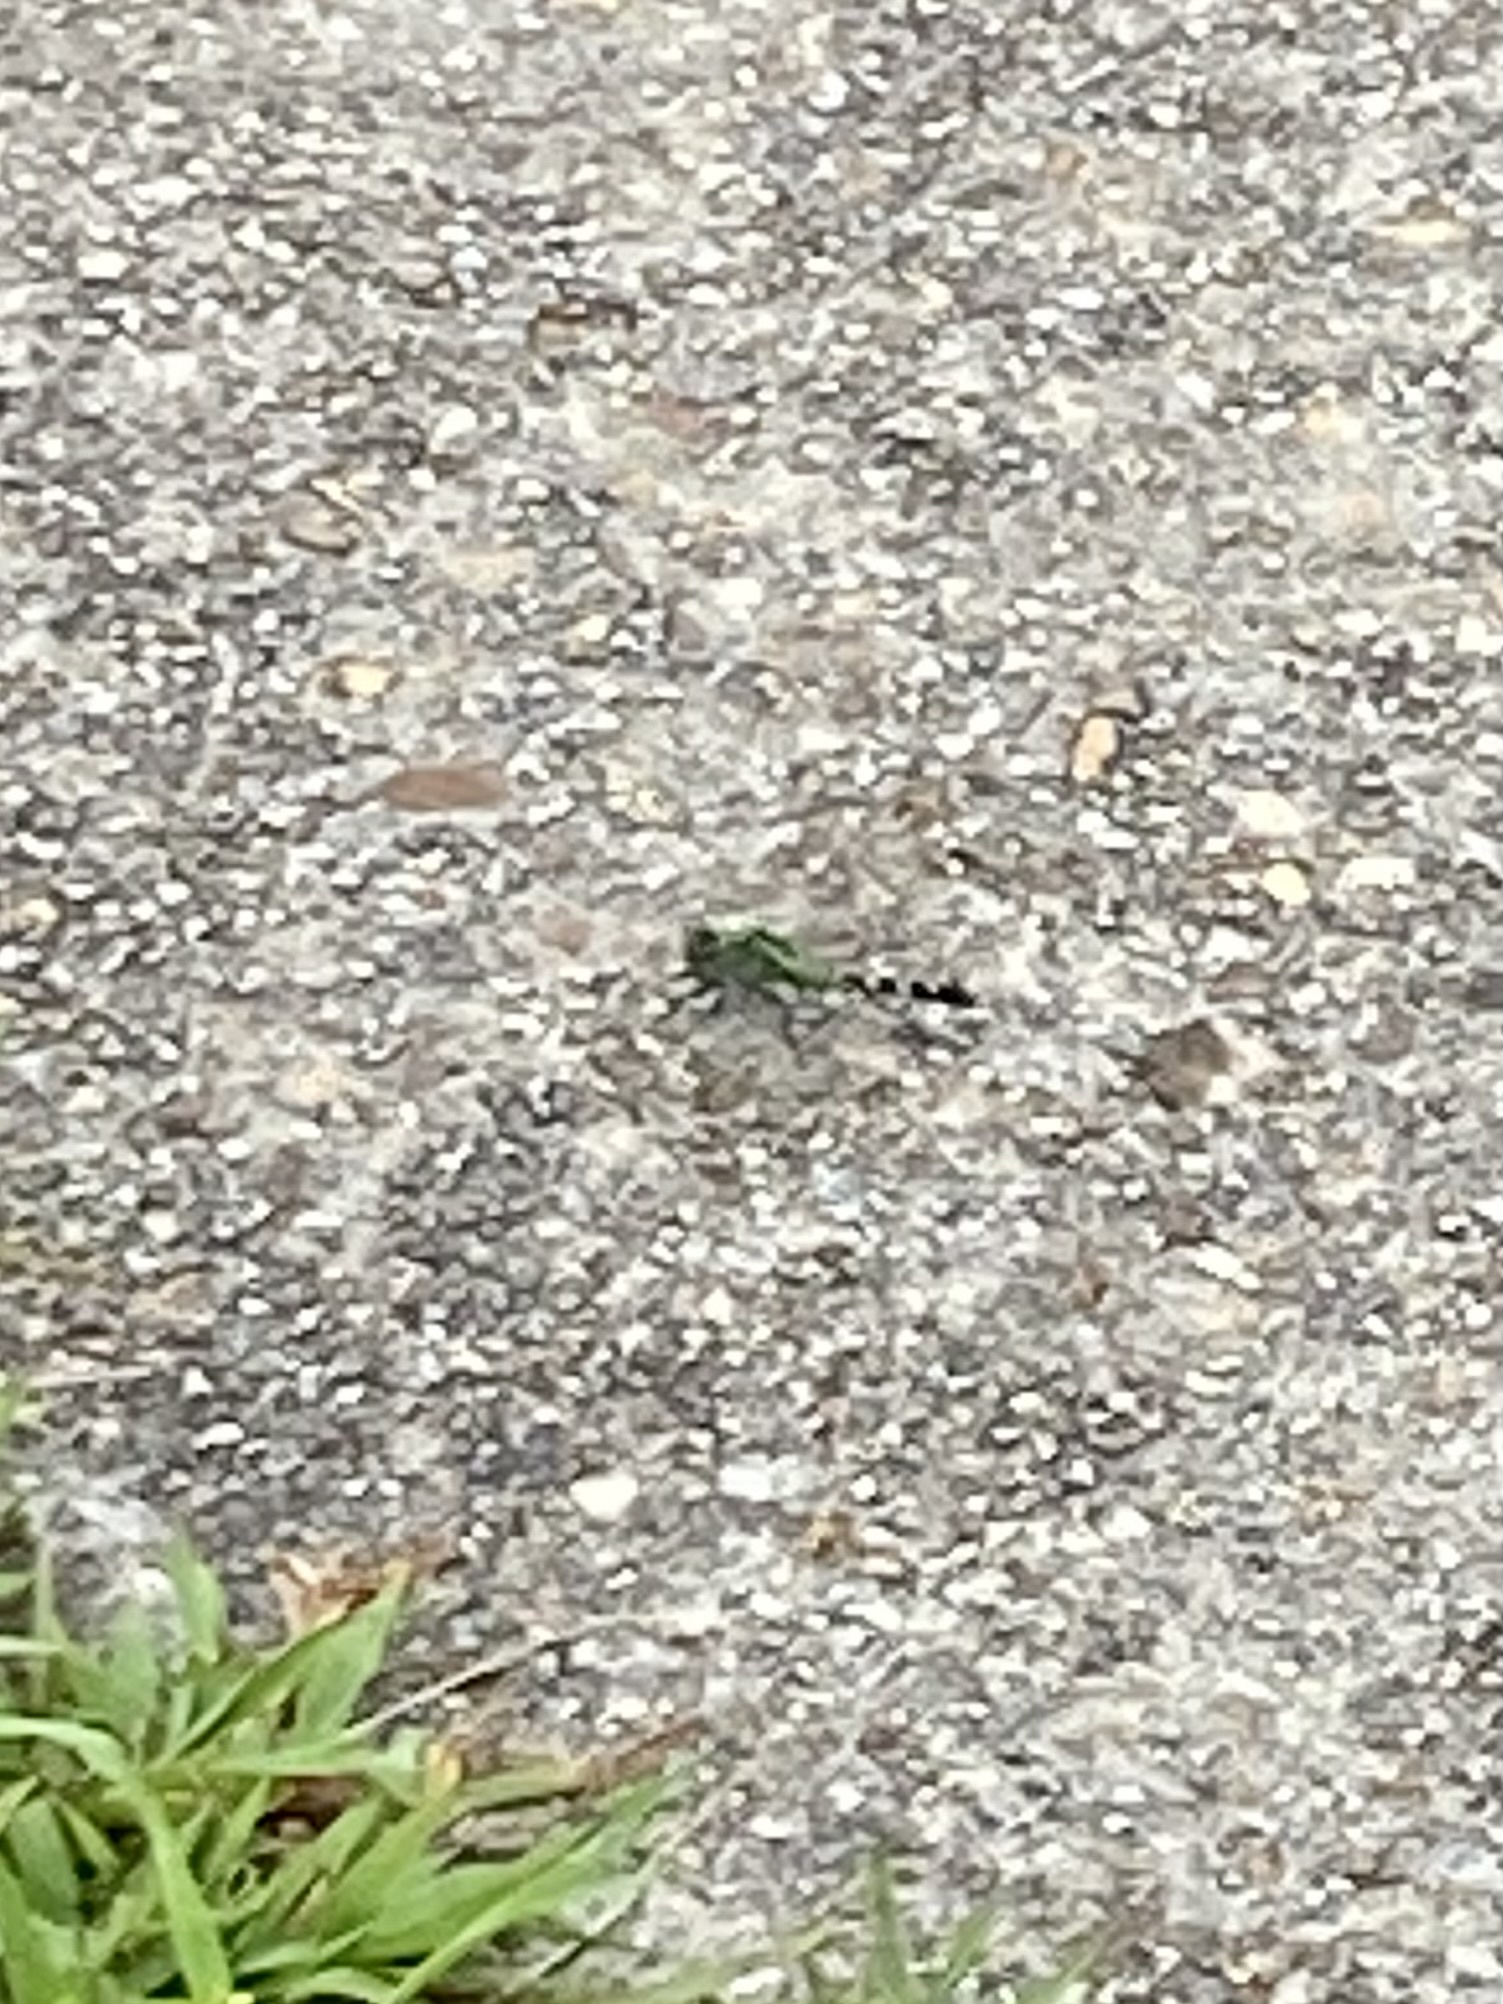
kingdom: Animalia
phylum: Arthropoda
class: Insecta
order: Odonata
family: Libellulidae
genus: Erythemis
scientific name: Erythemis simplicicollis
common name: Eastern pondhawk
